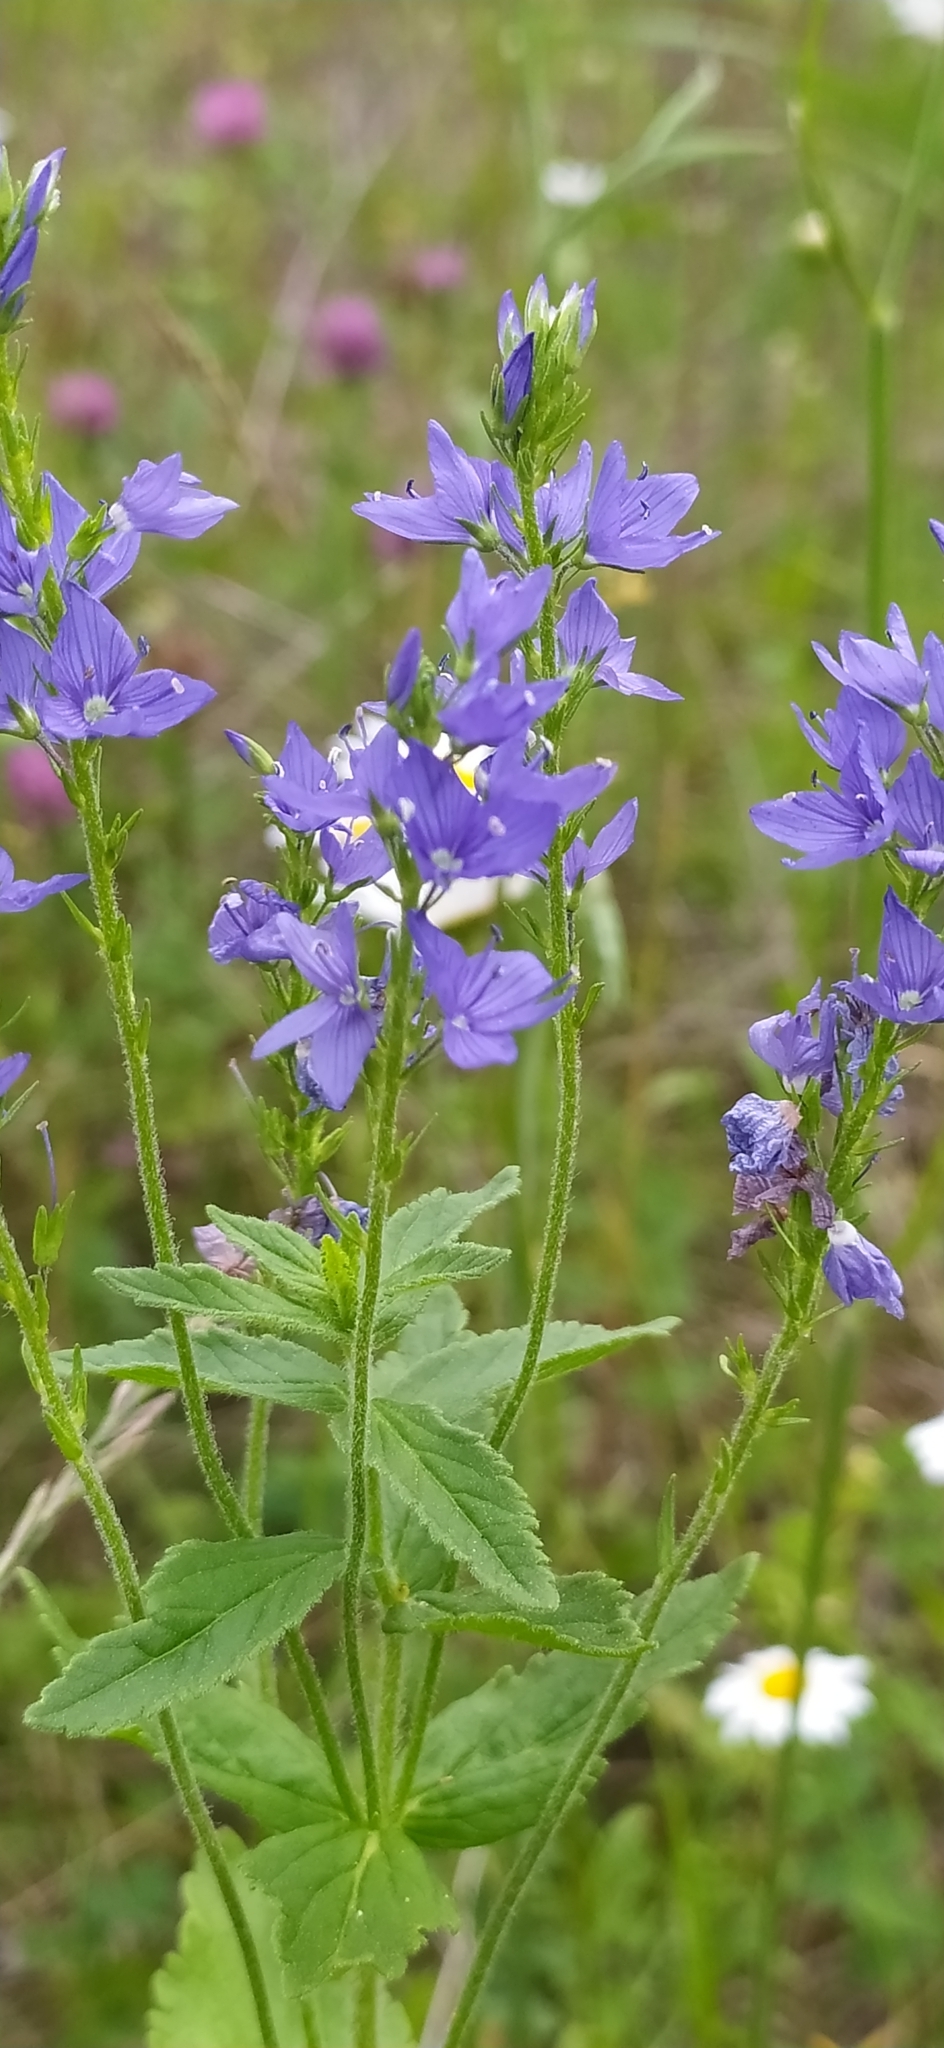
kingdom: Plantae
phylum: Tracheophyta
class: Magnoliopsida
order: Lamiales
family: Plantaginaceae
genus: Veronica
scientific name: Veronica teucrium
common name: Large speedwell
